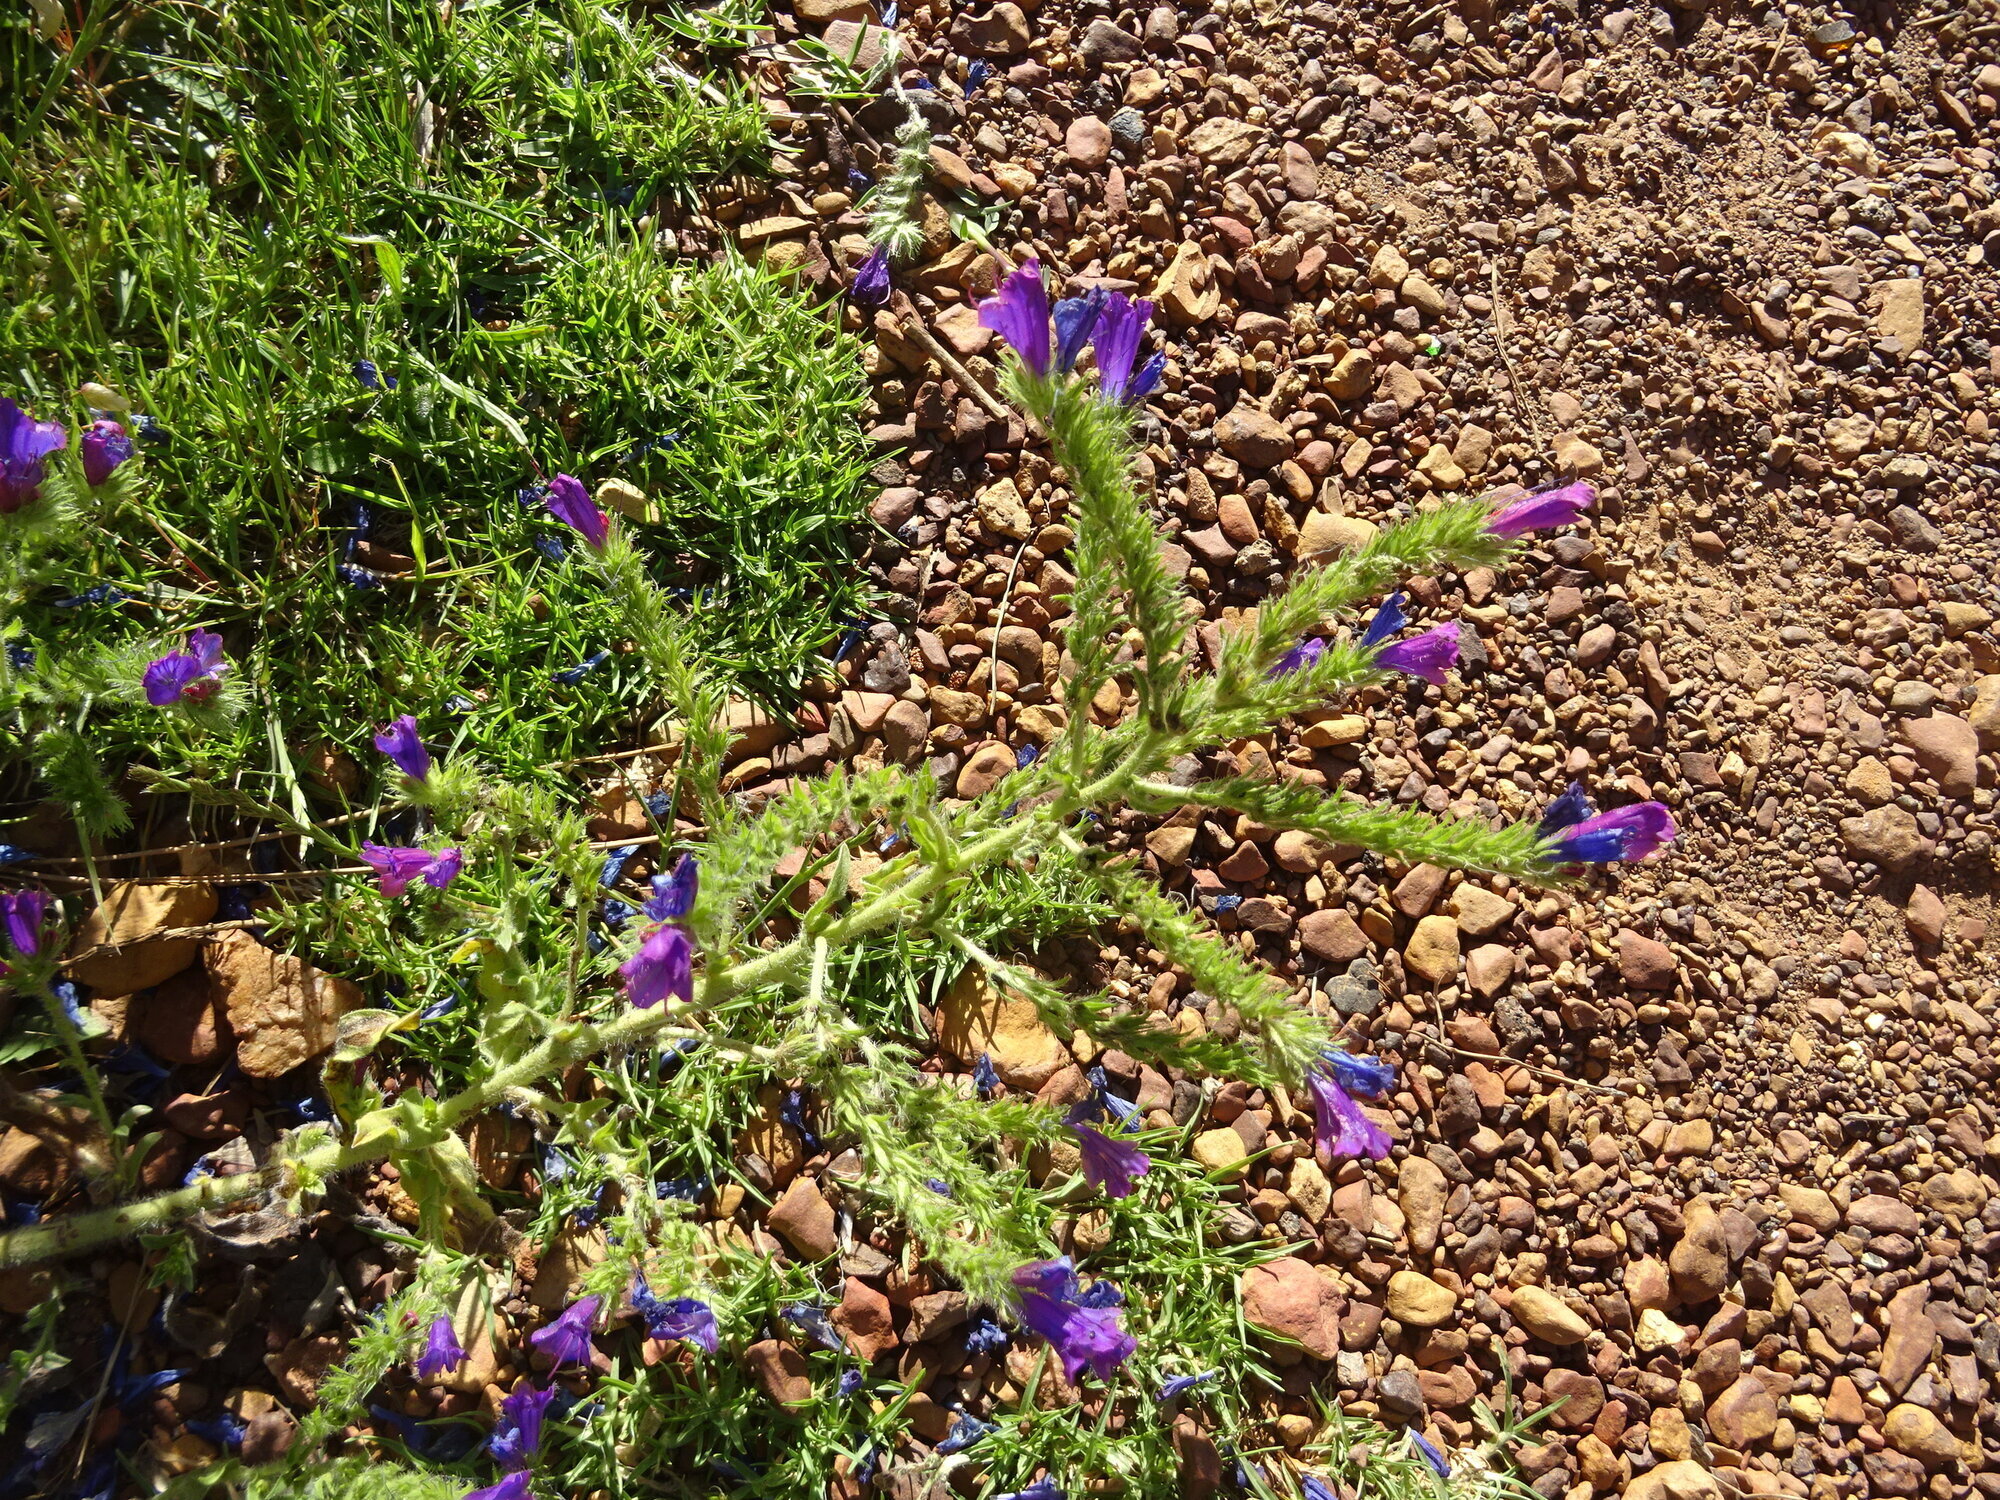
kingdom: Plantae
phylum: Tracheophyta
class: Magnoliopsida
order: Boraginales
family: Boraginaceae
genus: Echium
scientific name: Echium plantagineum
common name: Purple viper's-bugloss
